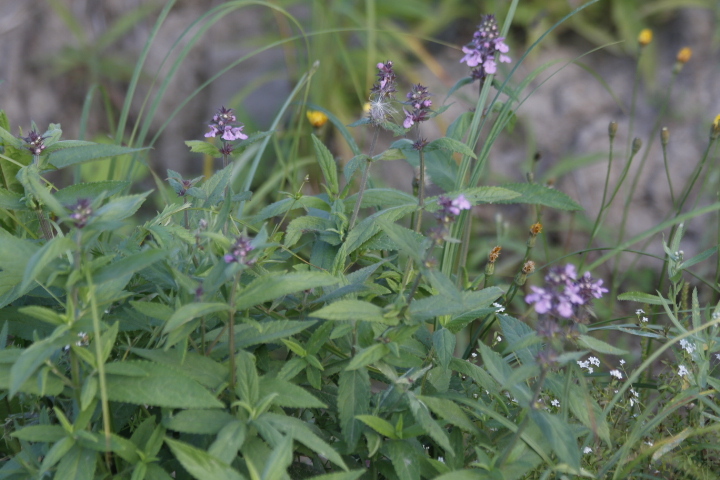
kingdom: Plantae
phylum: Tracheophyta
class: Magnoliopsida
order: Lamiales
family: Lamiaceae
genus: Stachys
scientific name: Stachys palustris
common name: Marsh woundwort
